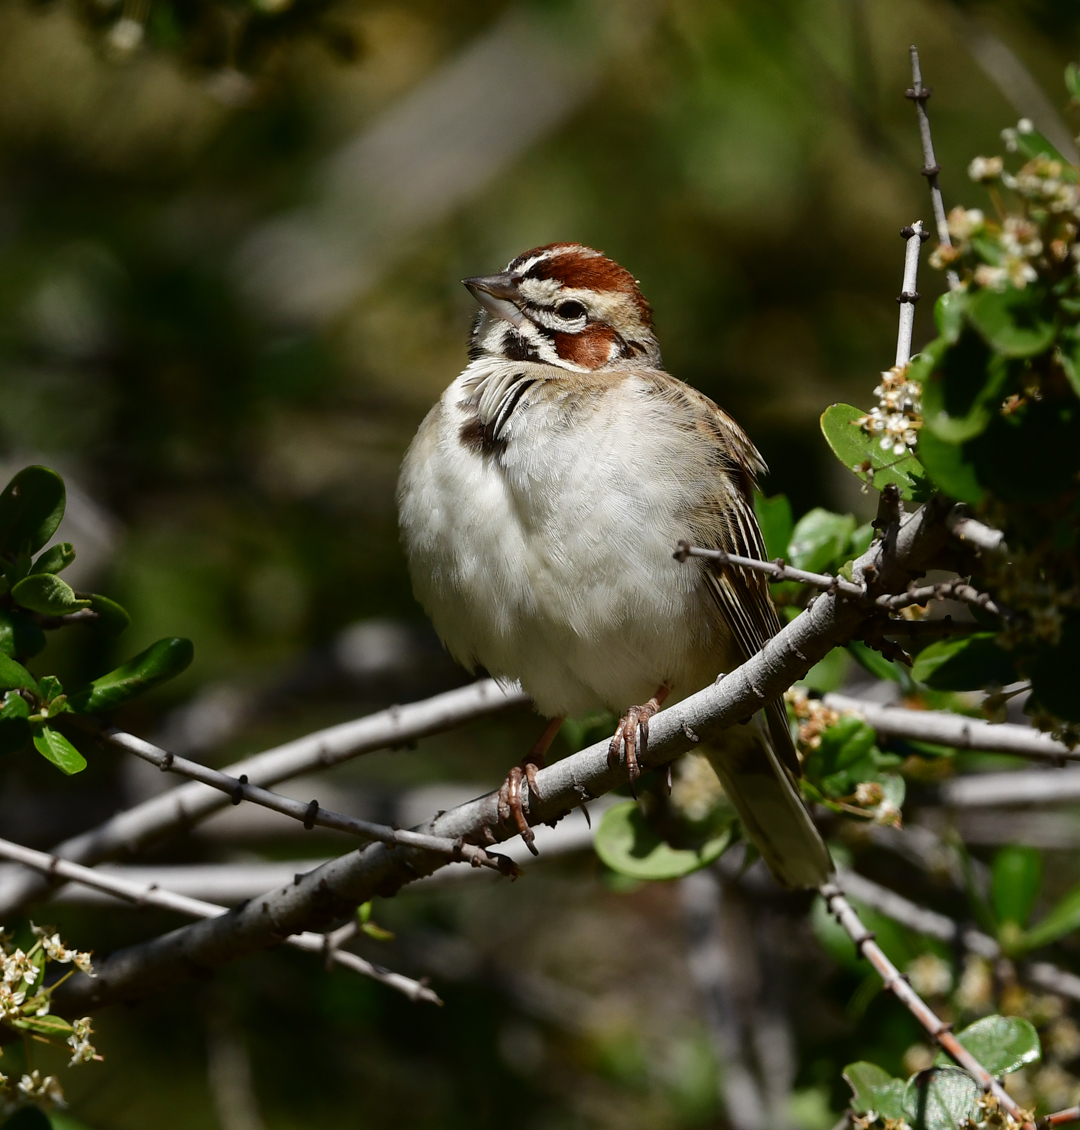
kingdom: Animalia
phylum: Chordata
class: Aves
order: Passeriformes
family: Passerellidae
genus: Chondestes
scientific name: Chondestes grammacus
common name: Lark sparrow
